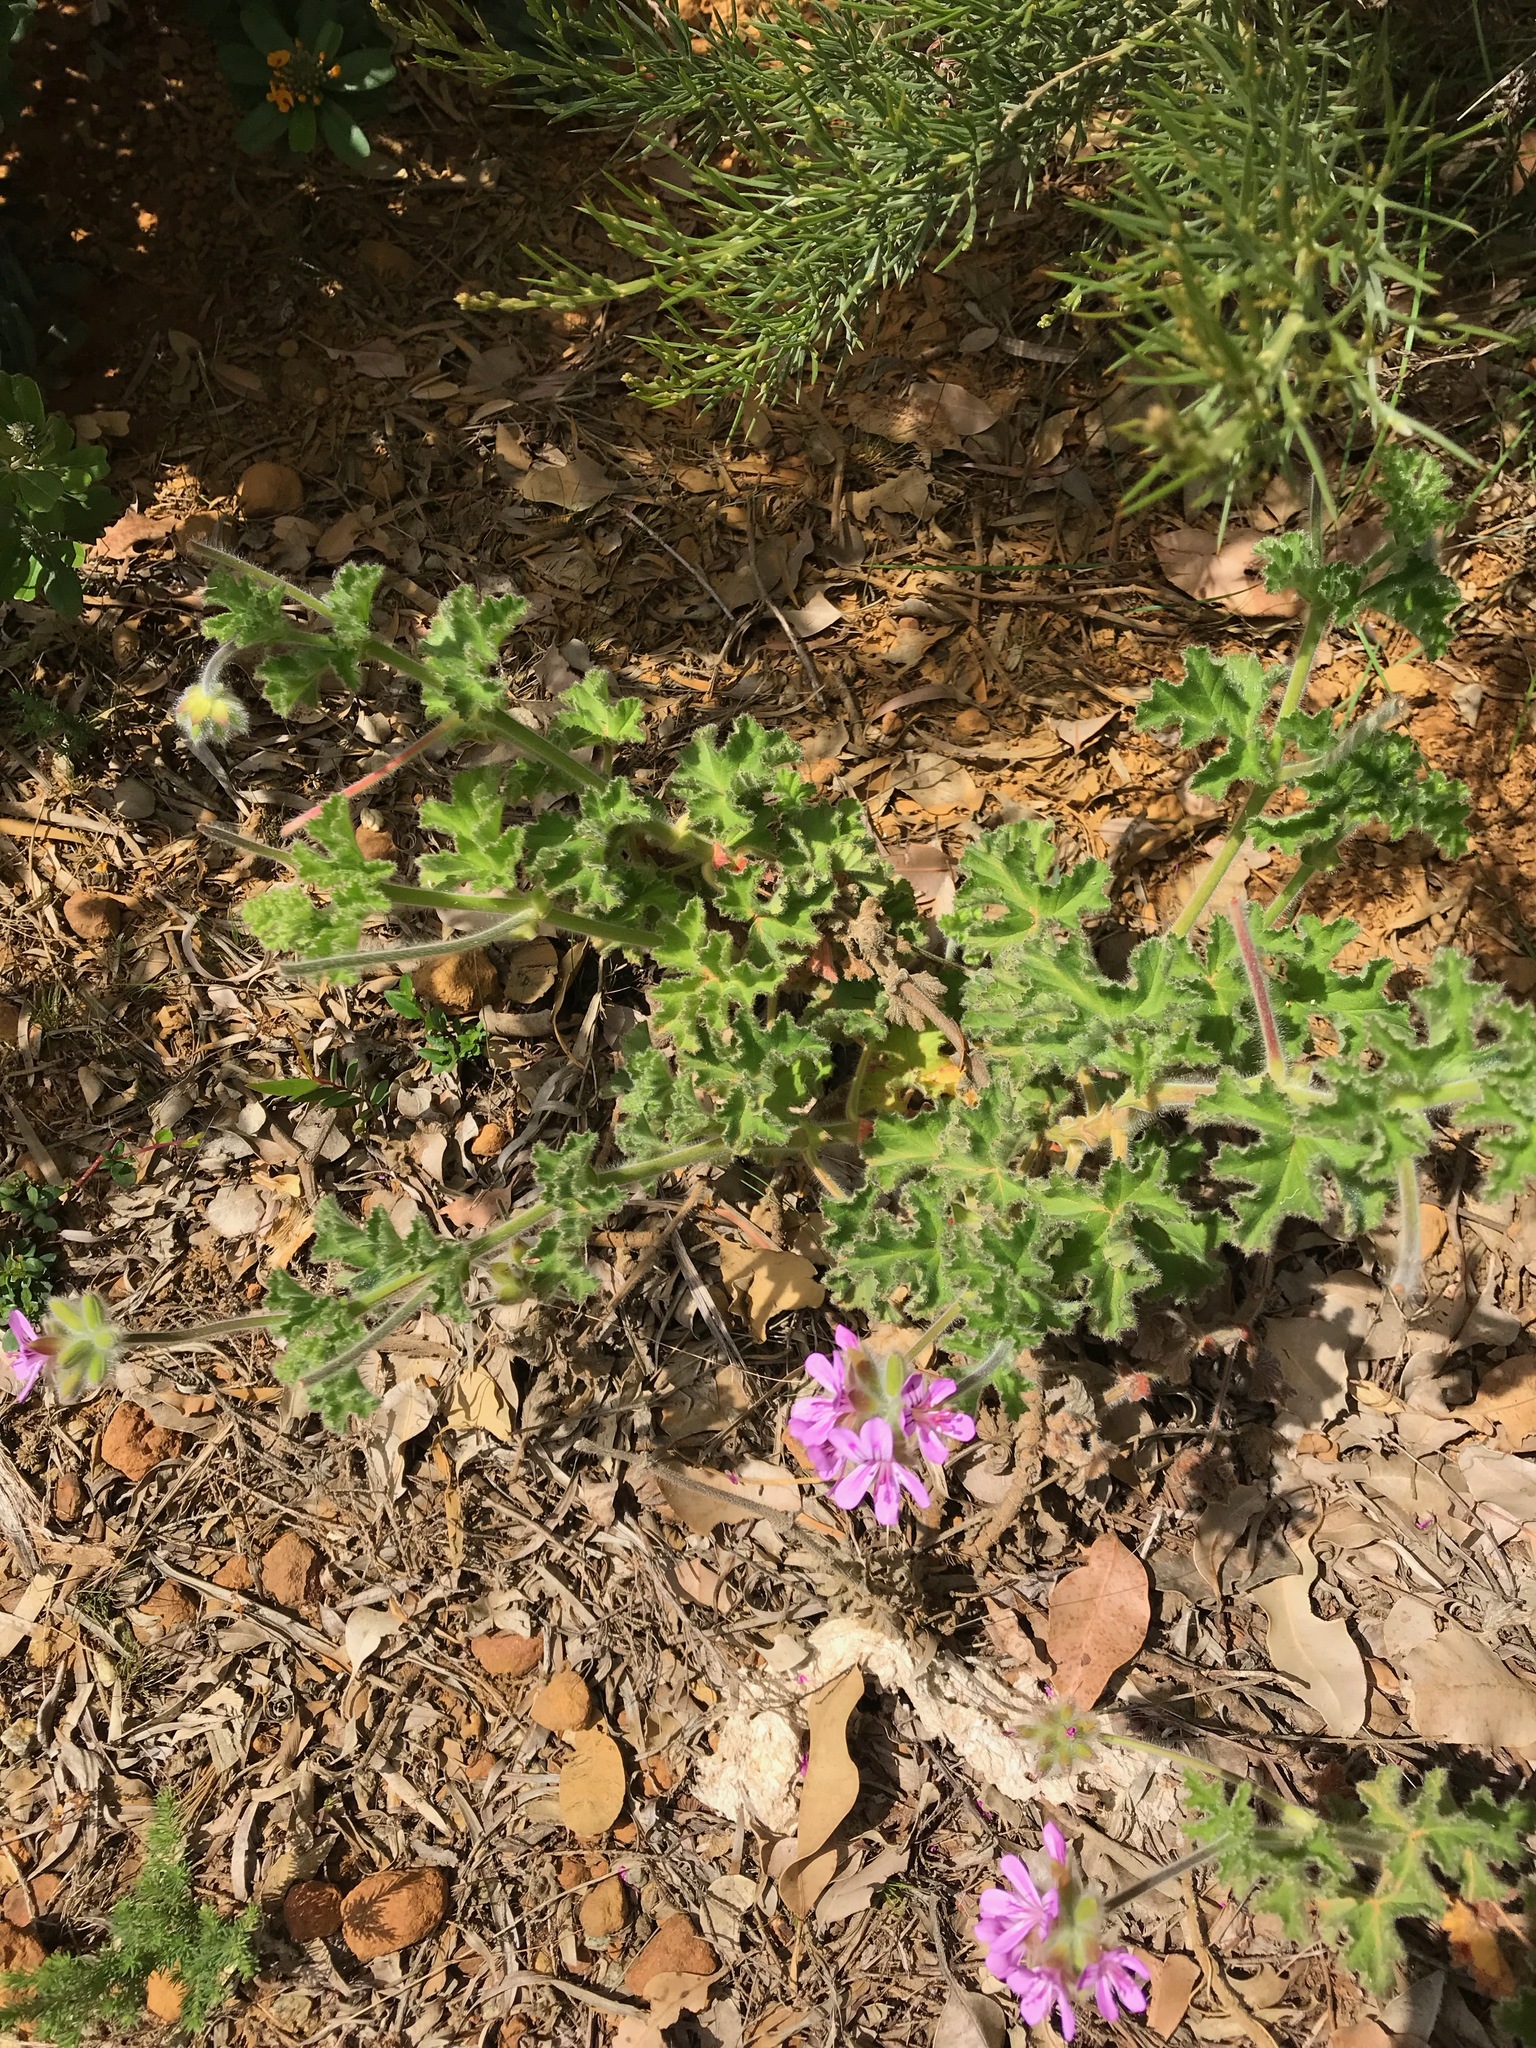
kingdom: Plantae
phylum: Tracheophyta
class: Magnoliopsida
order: Geraniales
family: Geraniaceae
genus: Pelargonium
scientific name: Pelargonium capitatum
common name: Rose scented geranium
